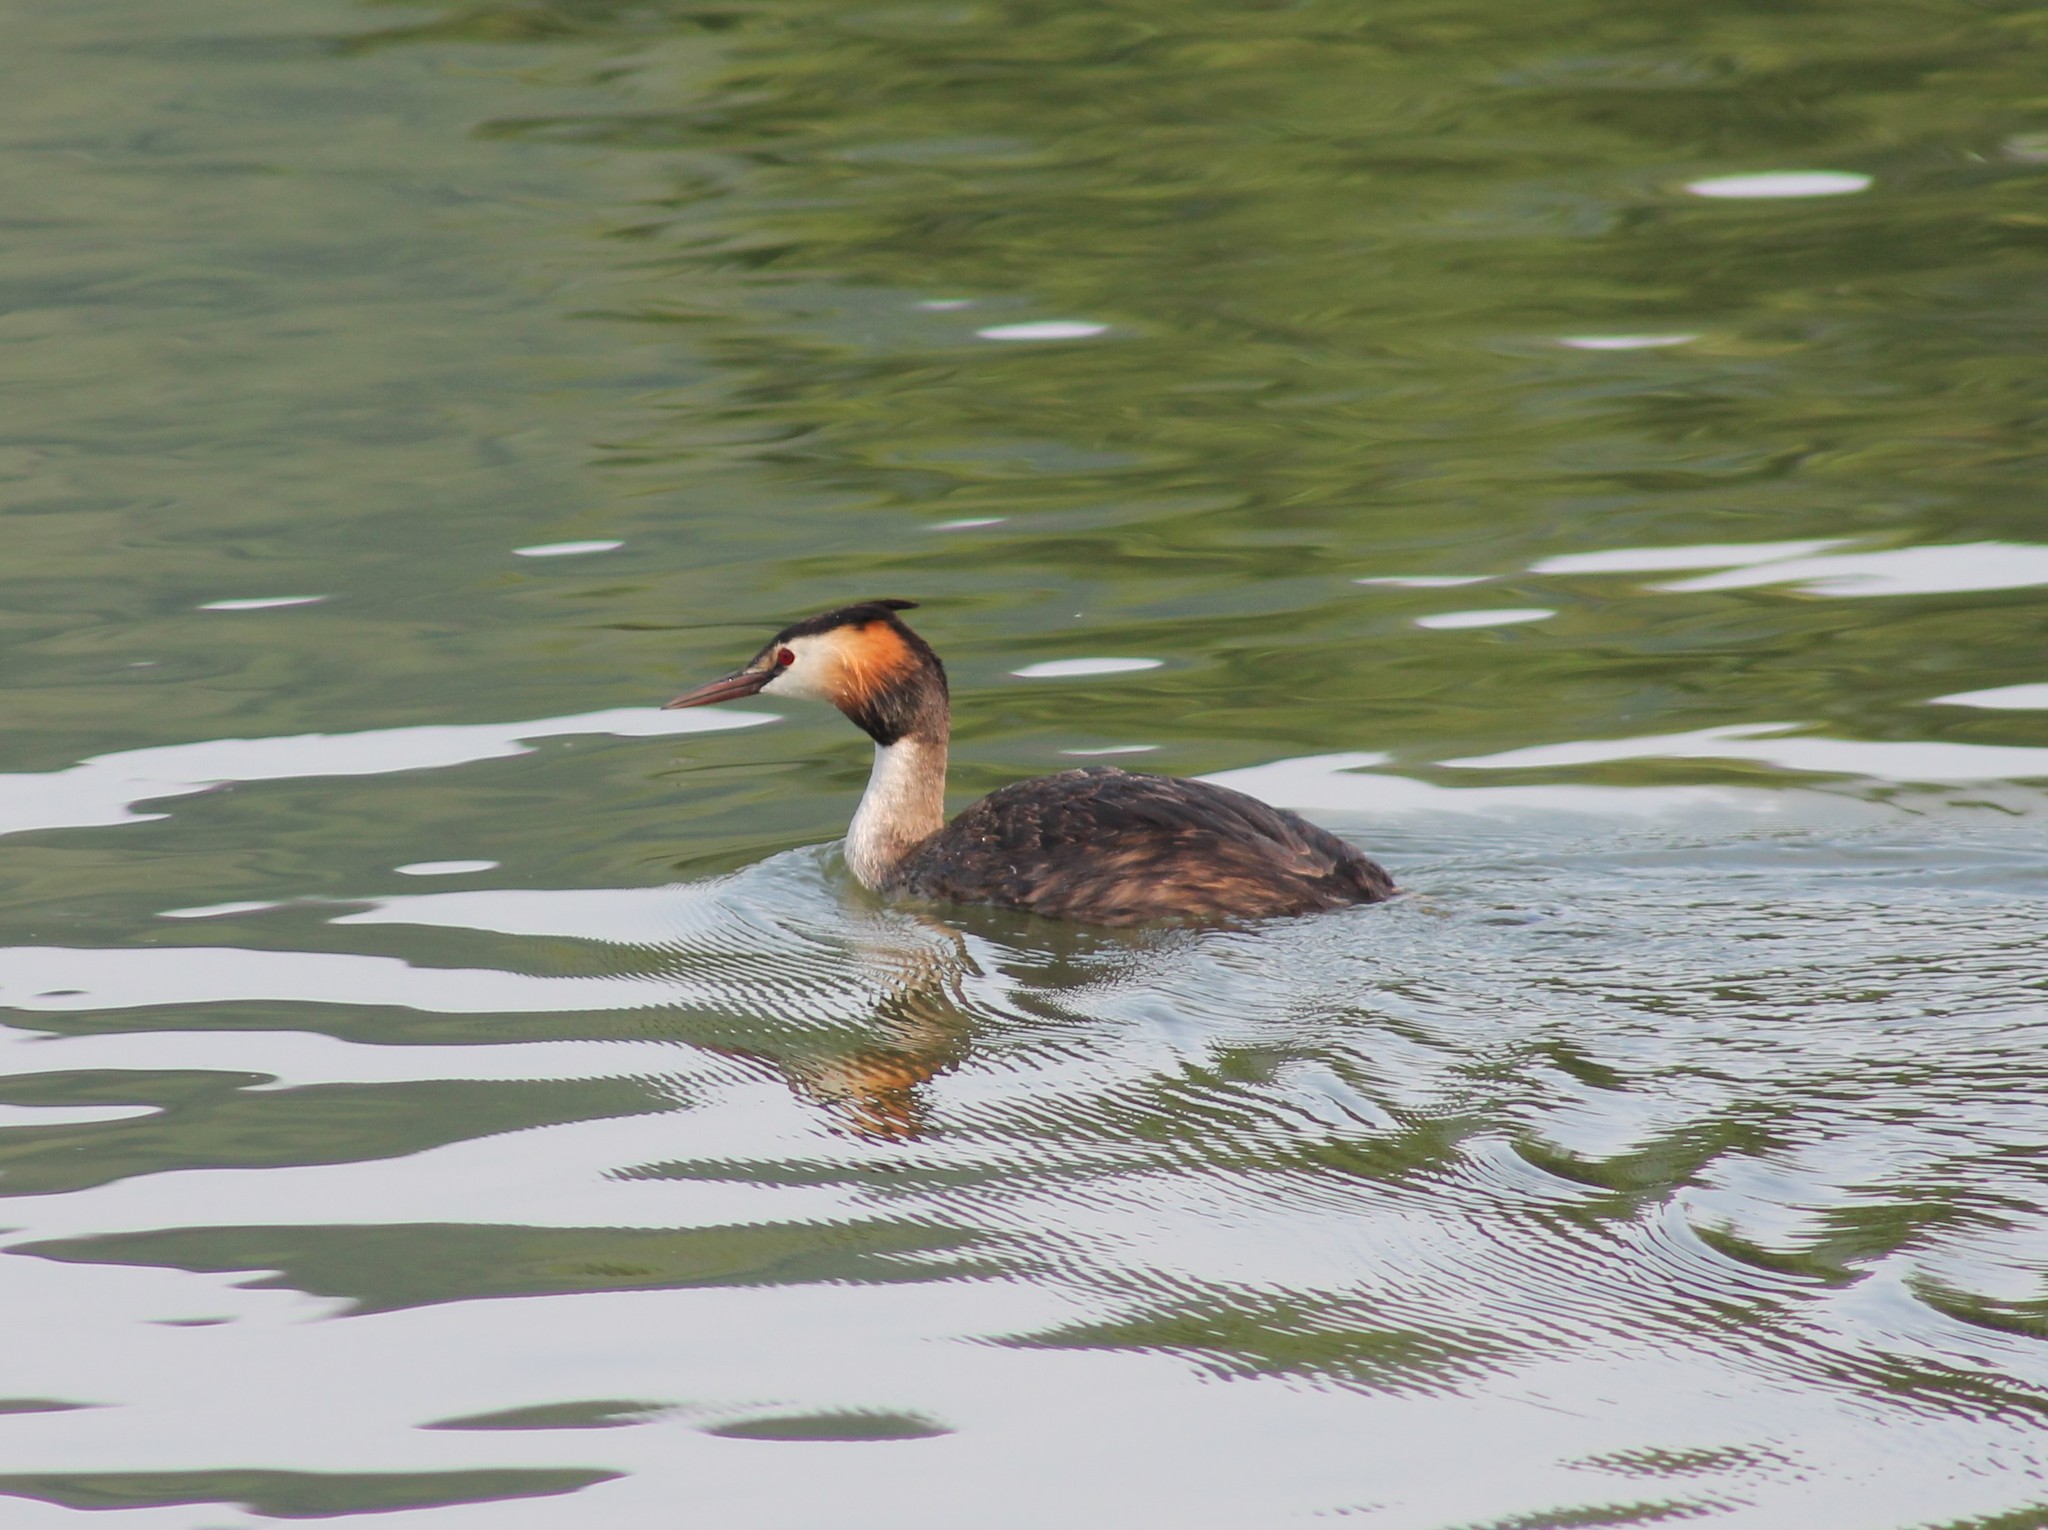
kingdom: Animalia
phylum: Chordata
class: Aves
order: Podicipediformes
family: Podicipedidae
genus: Podiceps
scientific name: Podiceps cristatus
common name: Great crested grebe
